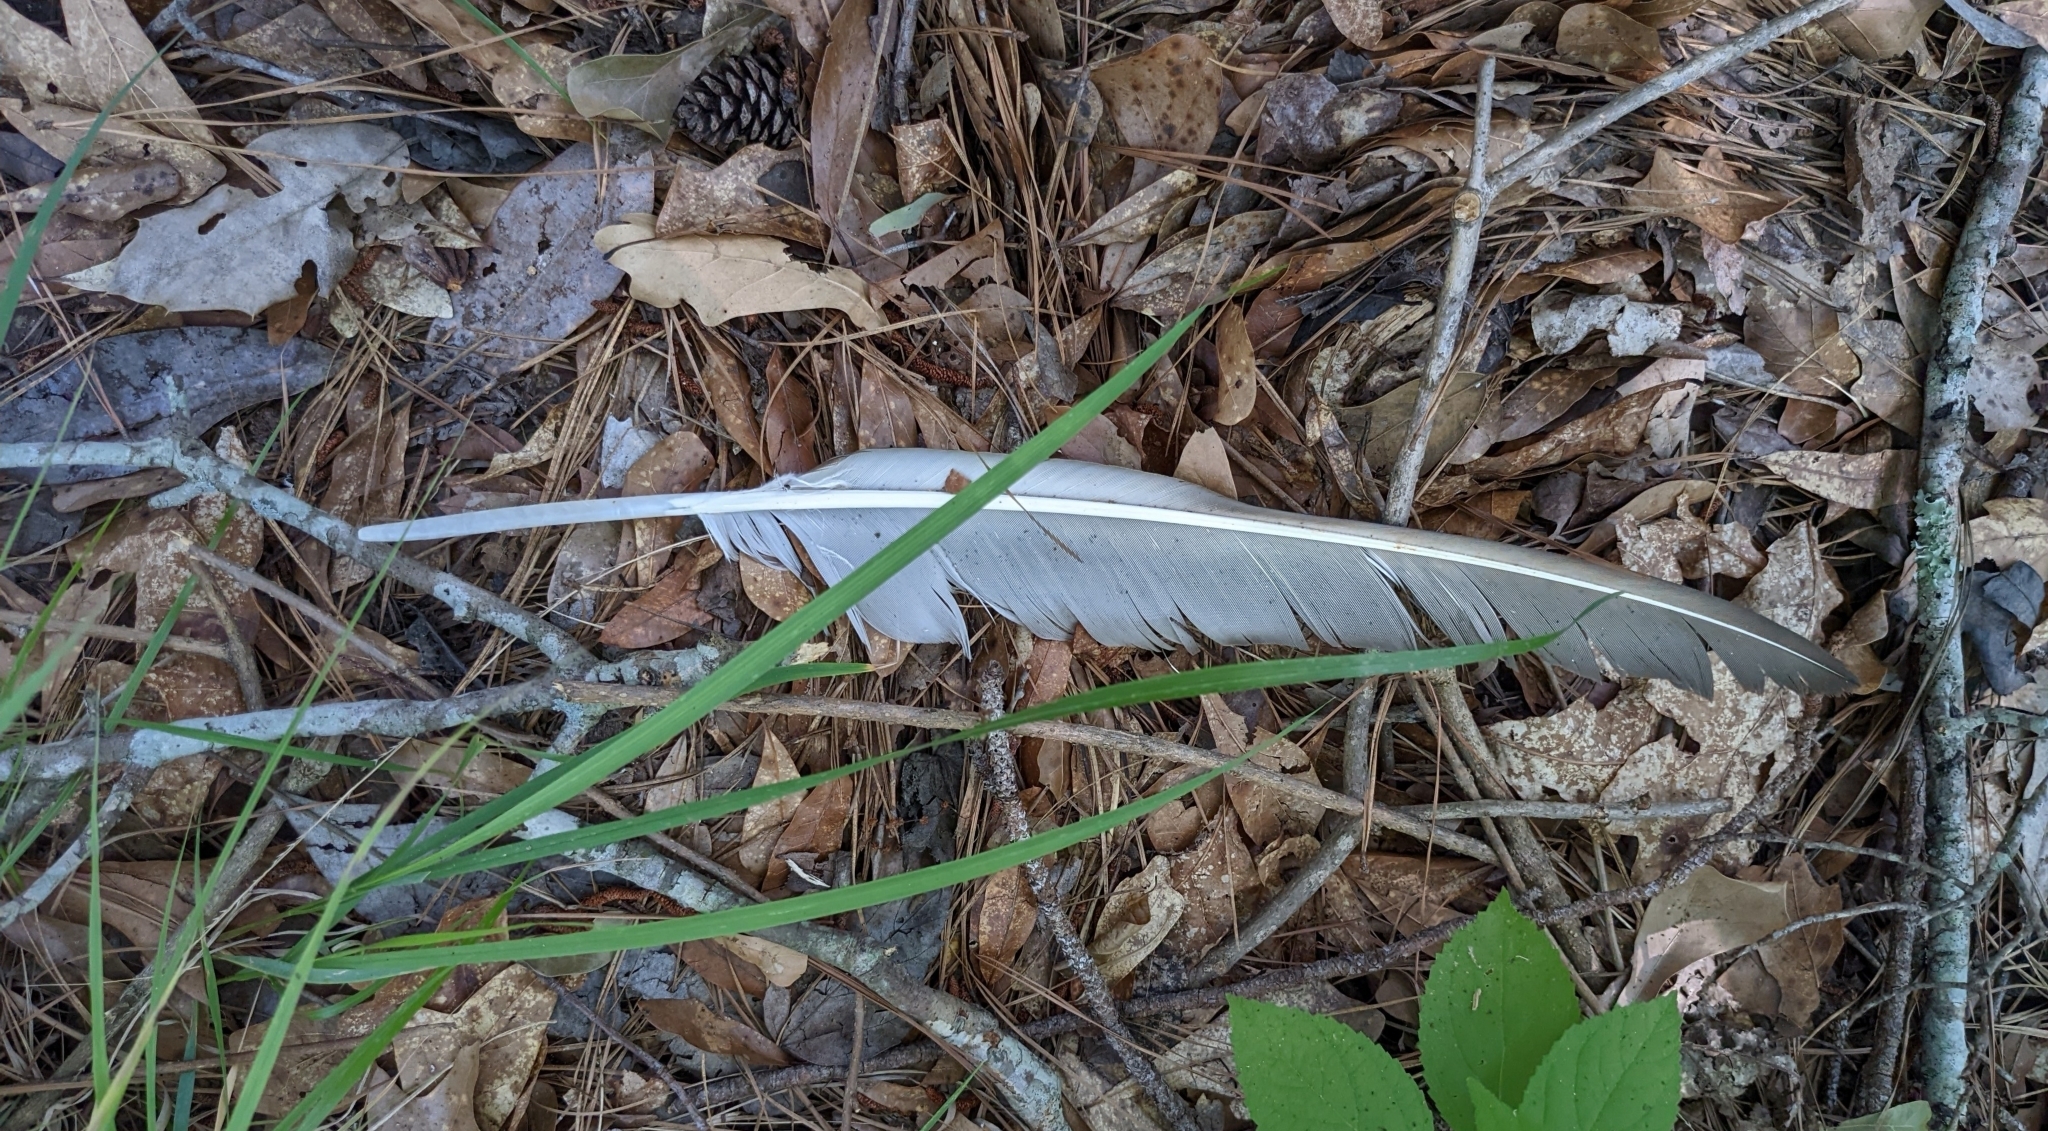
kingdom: Animalia
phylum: Chordata
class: Aves
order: Accipitriformes
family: Cathartidae
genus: Cathartes
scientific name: Cathartes aura
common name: Turkey vulture
